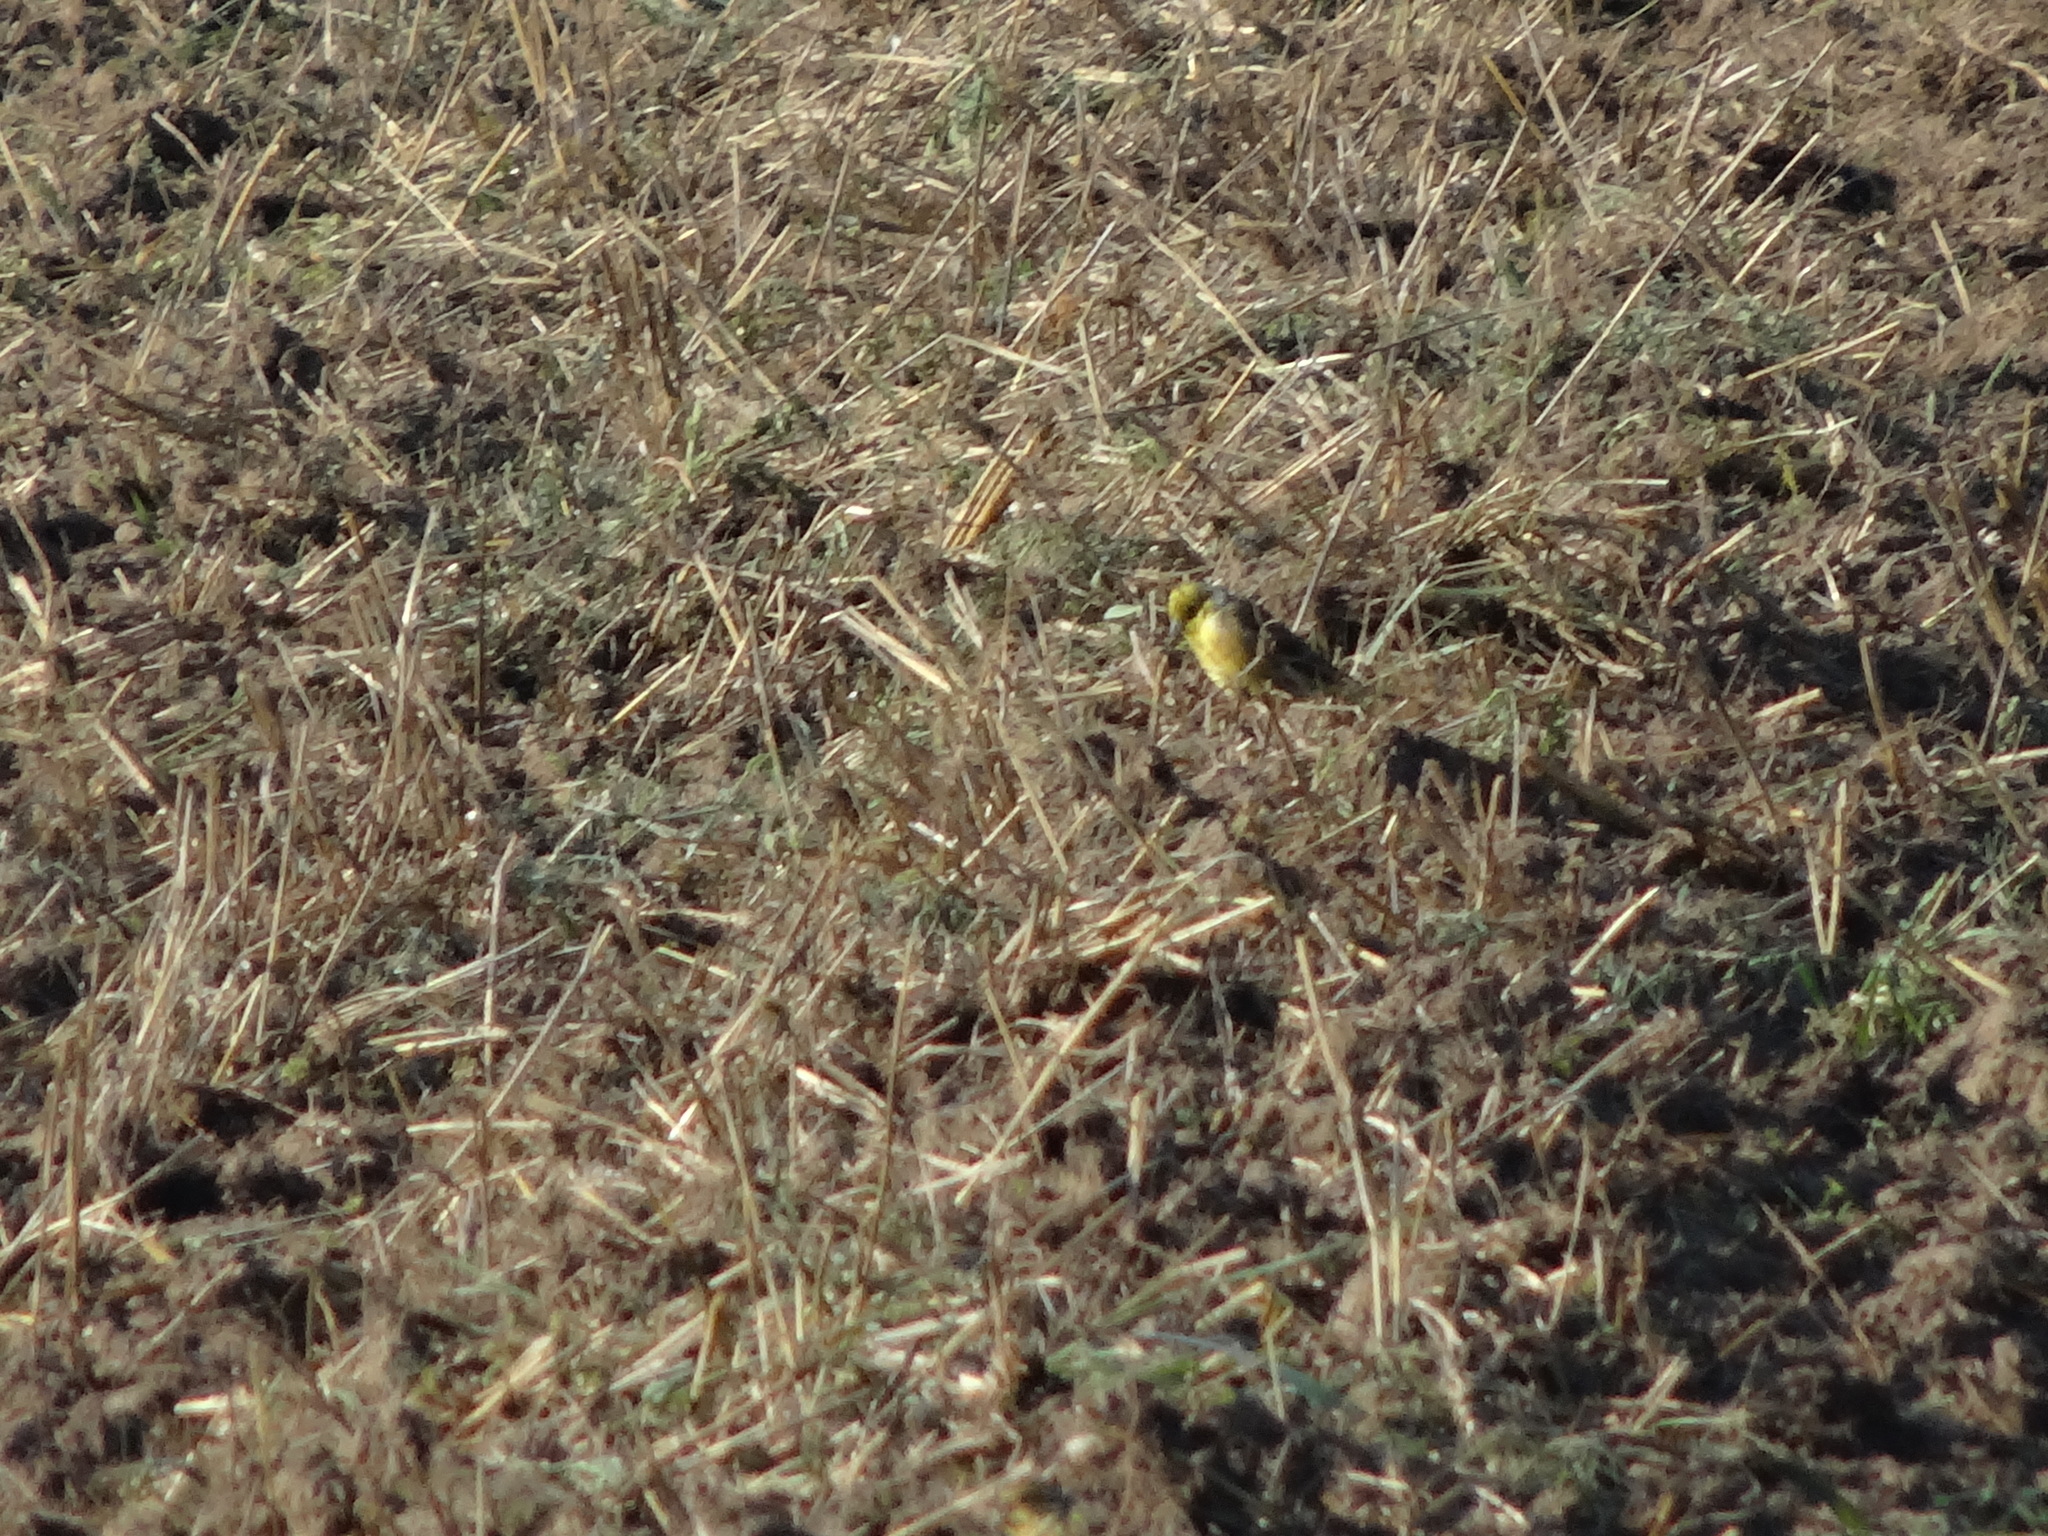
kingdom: Animalia
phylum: Chordata
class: Aves
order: Passeriformes
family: Emberizidae
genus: Emberiza
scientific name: Emberiza citrinella
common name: Yellowhammer
